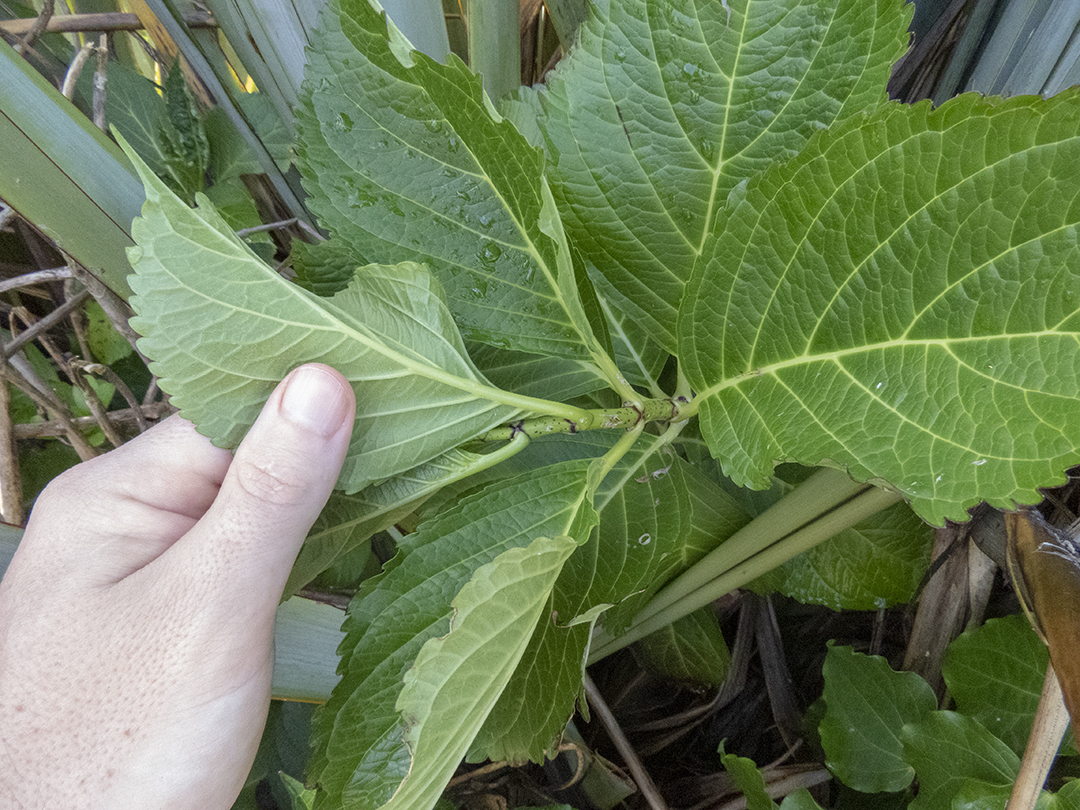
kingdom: Plantae
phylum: Tracheophyta
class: Magnoliopsida
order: Cornales
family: Hydrangeaceae
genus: Hydrangea
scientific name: Hydrangea macrophylla
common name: Hydrangea
